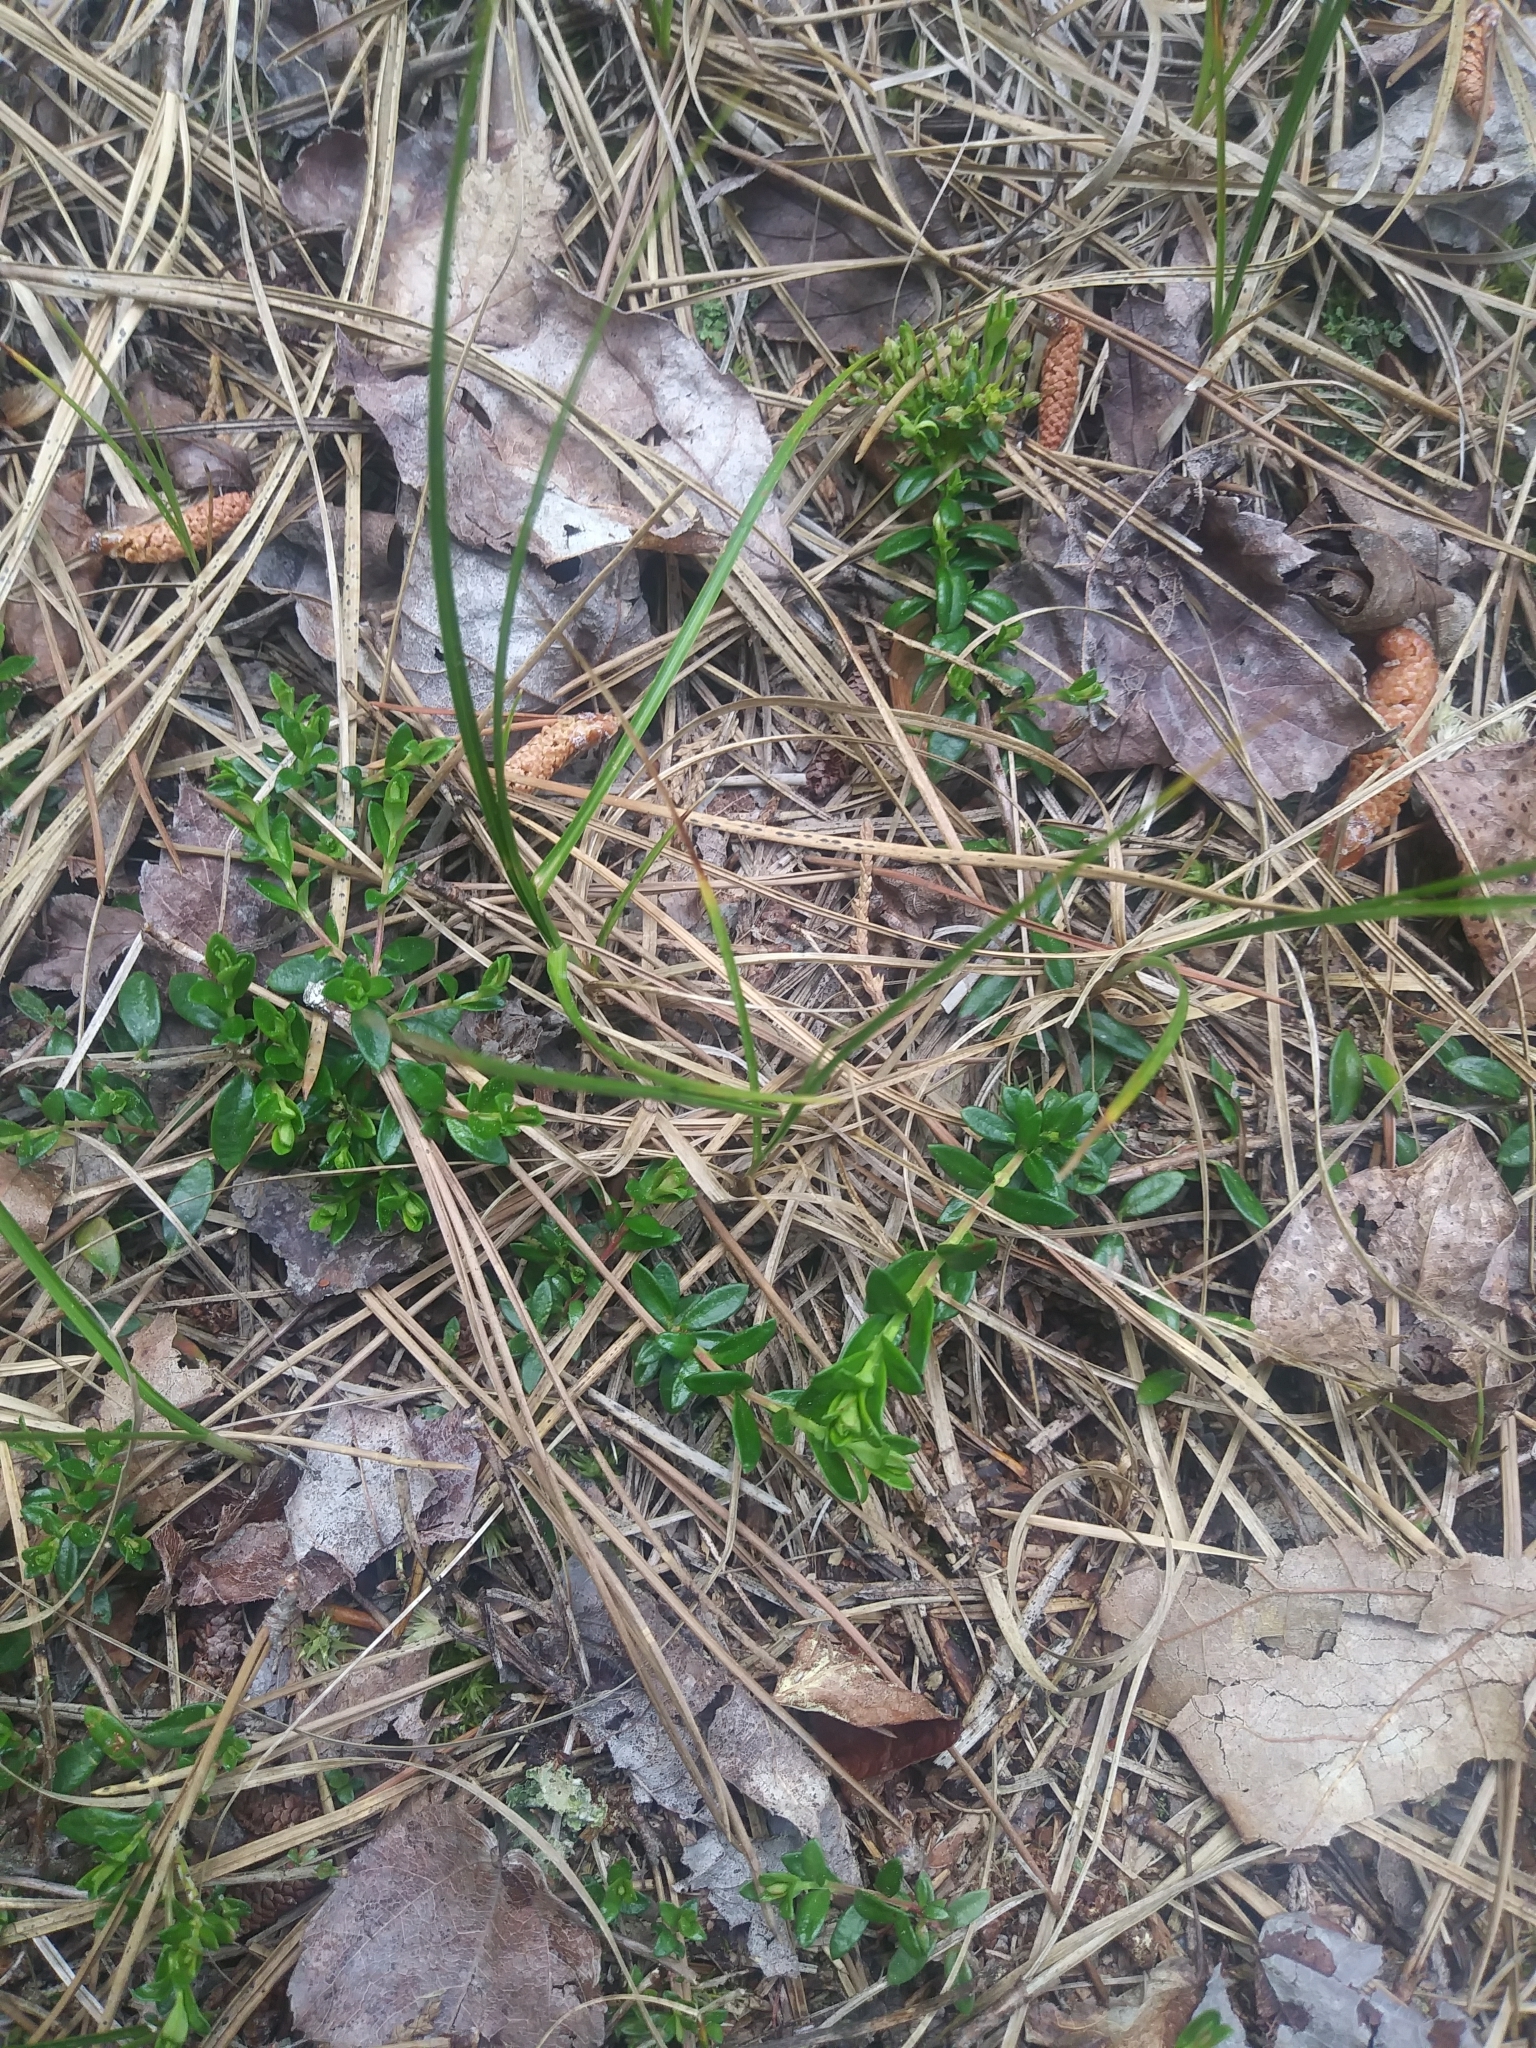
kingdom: Plantae
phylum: Tracheophyta
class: Magnoliopsida
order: Ericales
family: Ericaceae
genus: Kalmia
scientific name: Kalmia buxifolia
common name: Sandmyrtle
